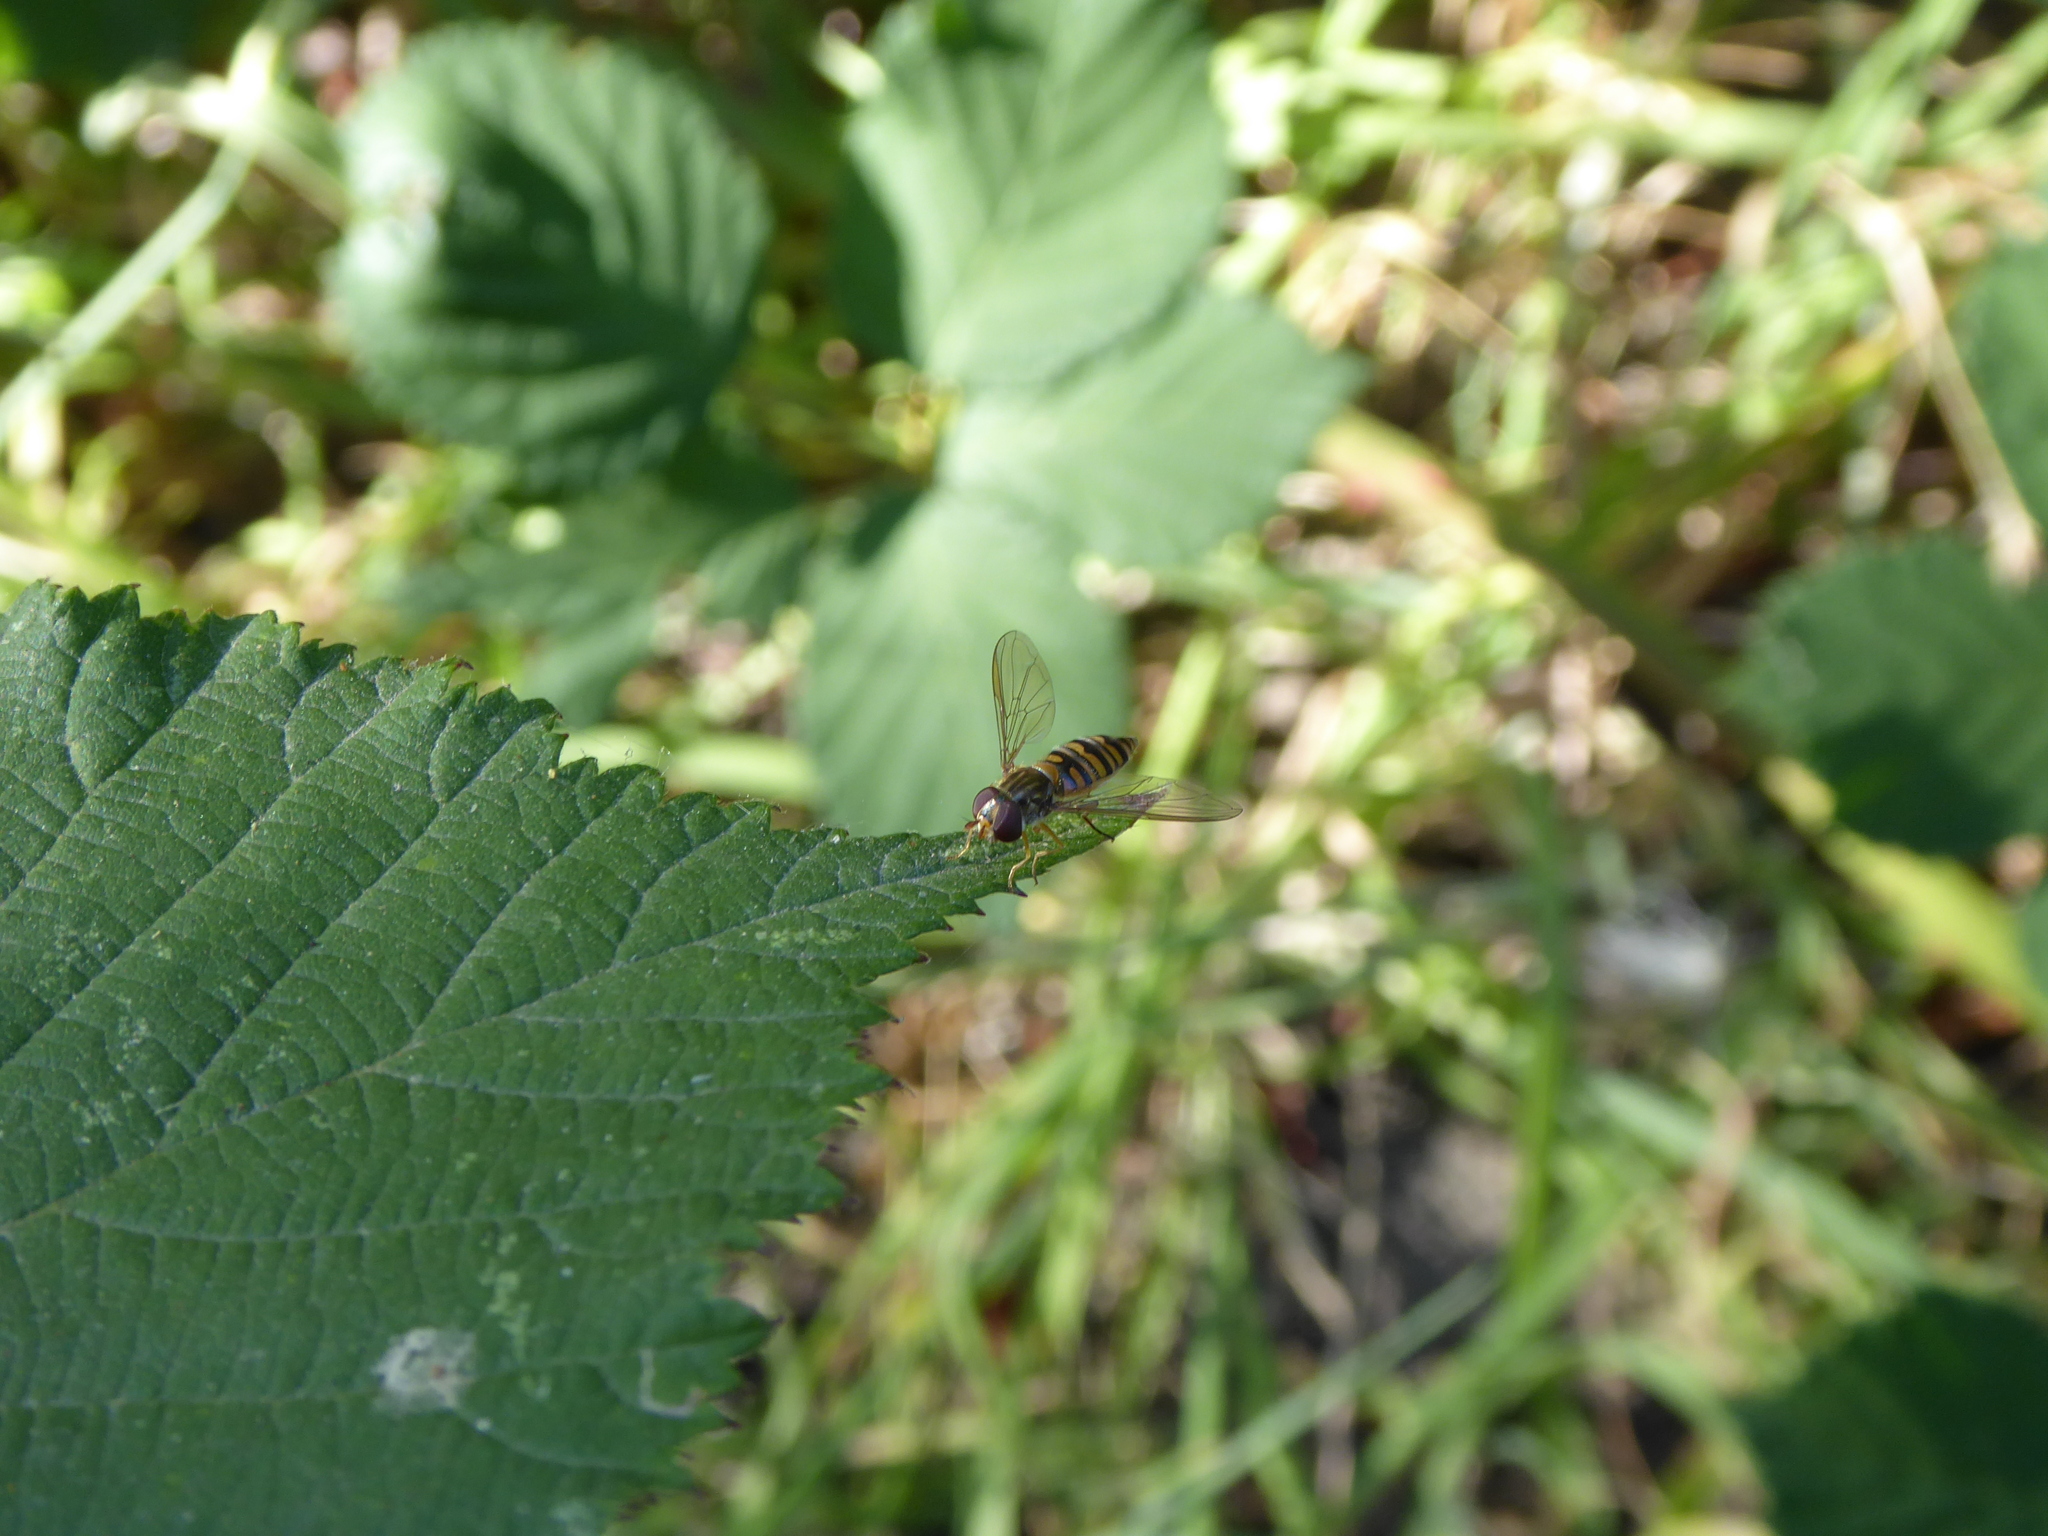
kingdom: Animalia
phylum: Arthropoda
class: Insecta
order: Diptera
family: Syrphidae
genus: Episyrphus
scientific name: Episyrphus balteatus
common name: Marmalade hoverfly
